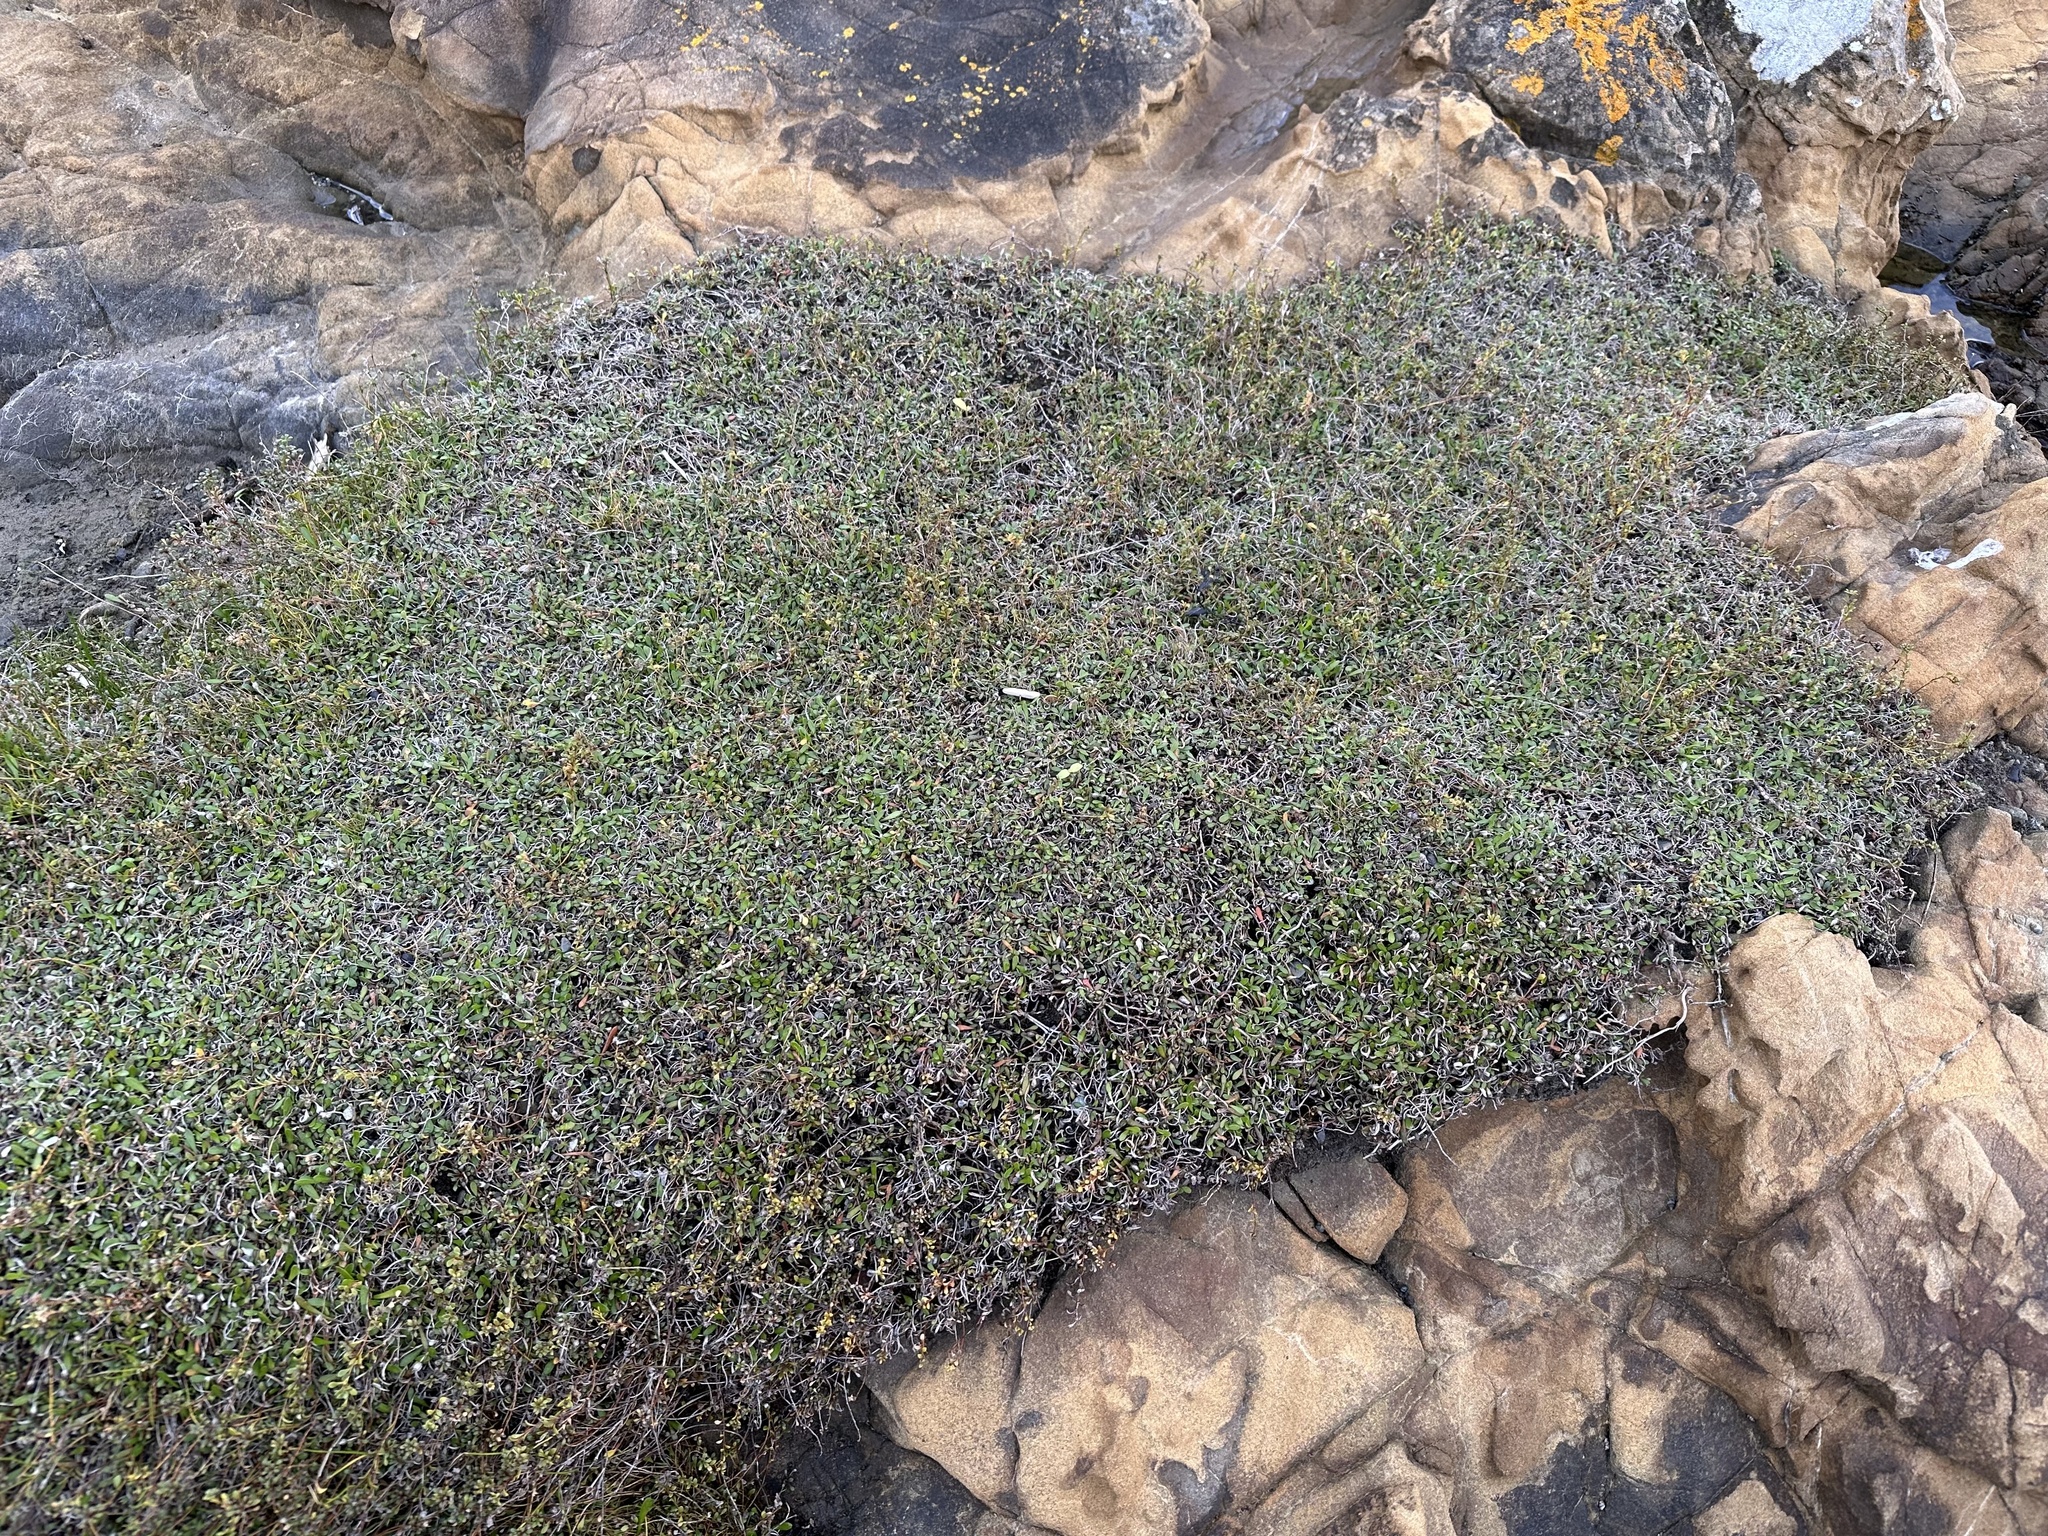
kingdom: Plantae
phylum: Tracheophyta
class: Magnoliopsida
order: Asterales
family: Goodeniaceae
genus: Goodenia
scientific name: Goodenia radicans
